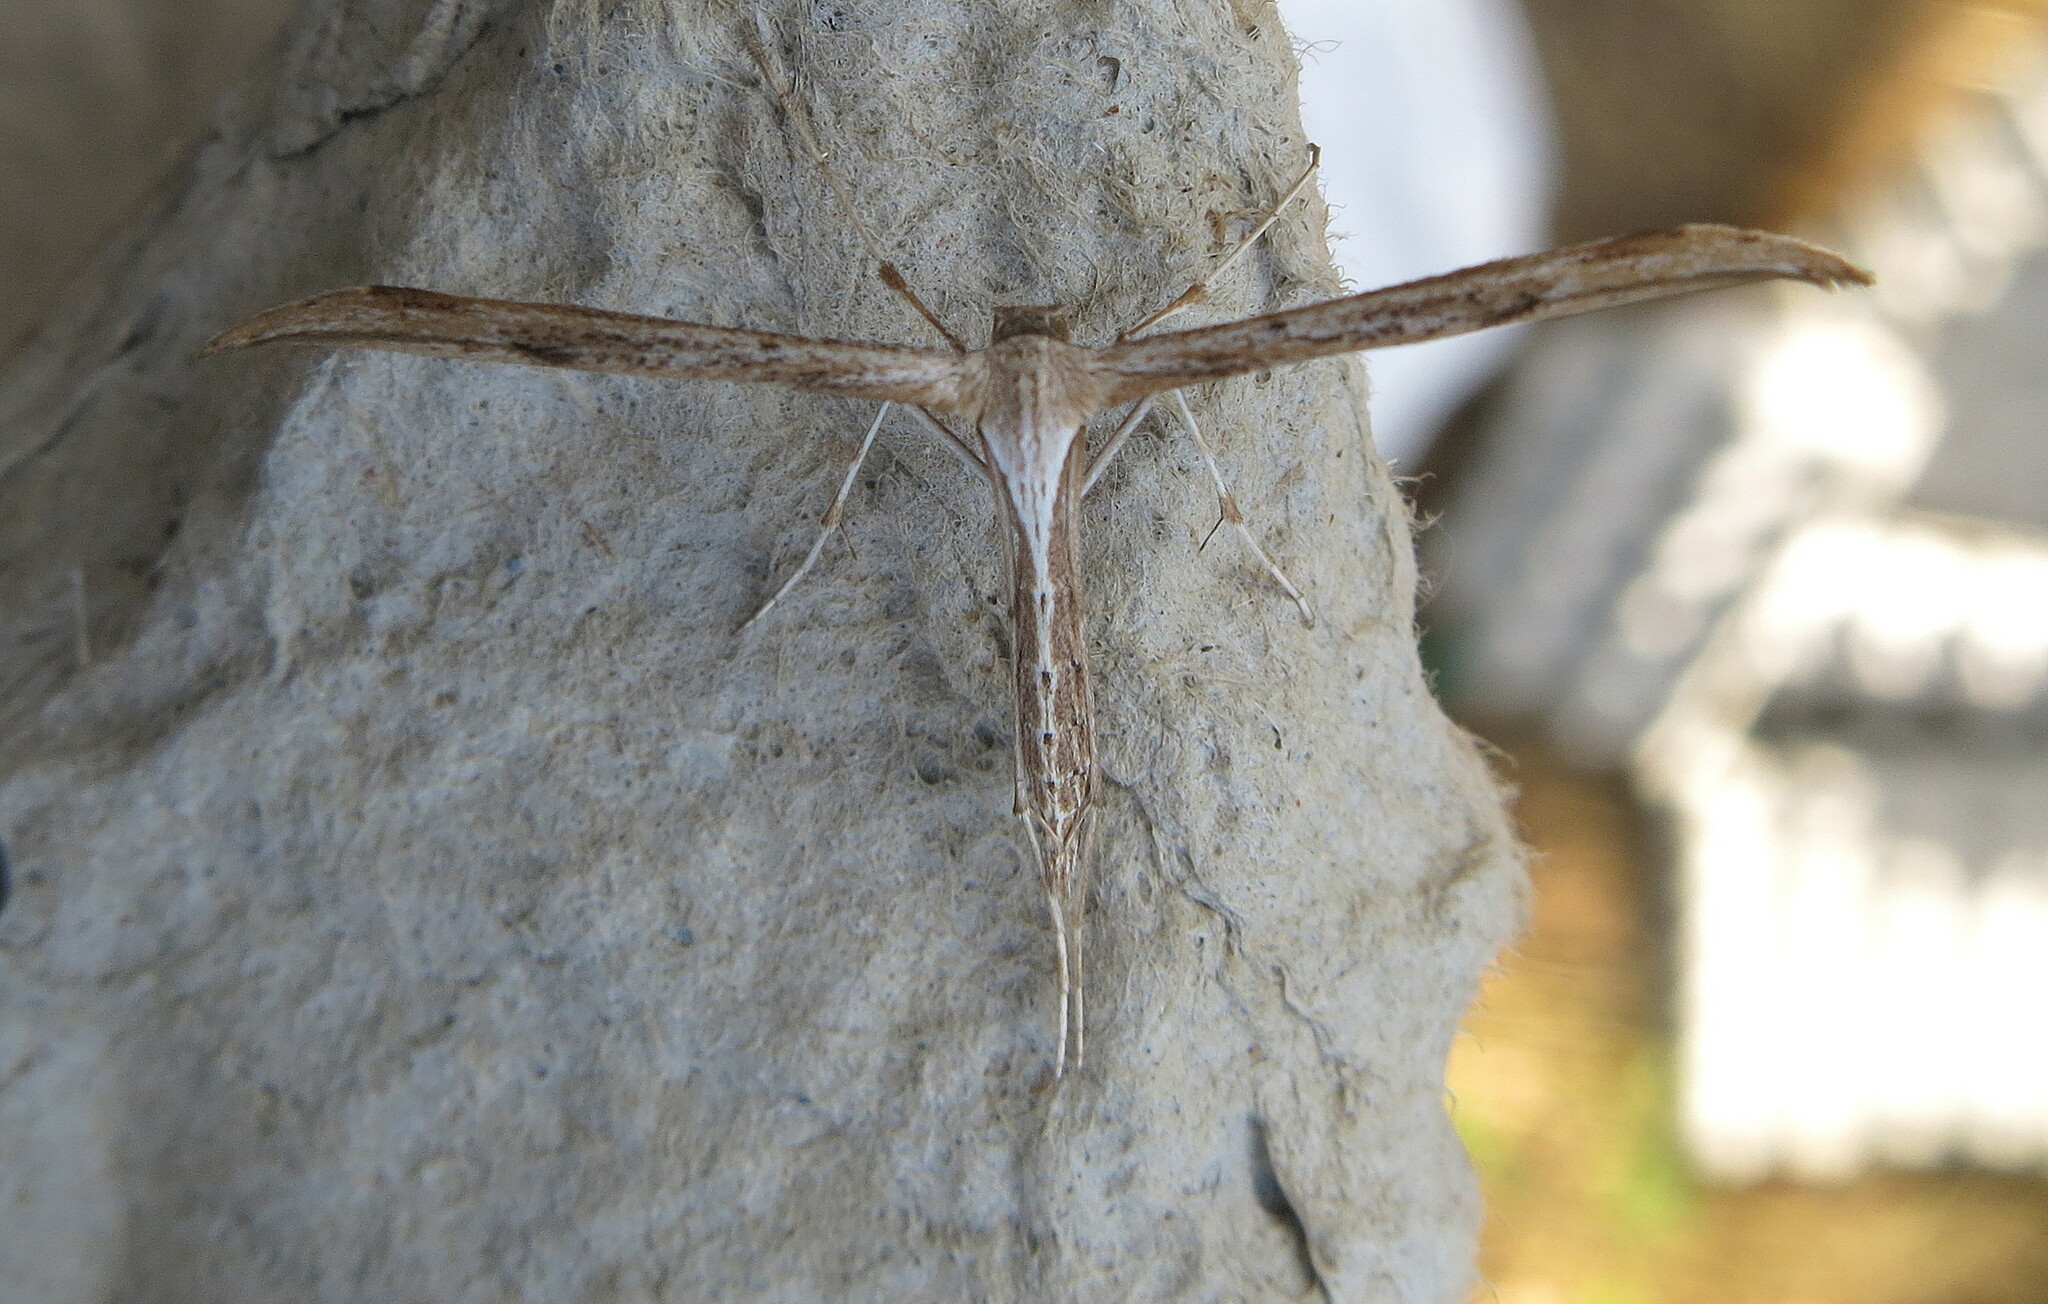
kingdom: Animalia
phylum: Arthropoda
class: Insecta
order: Lepidoptera
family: Pterophoridae
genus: Emmelina
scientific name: Emmelina monodactyla
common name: Common plume
